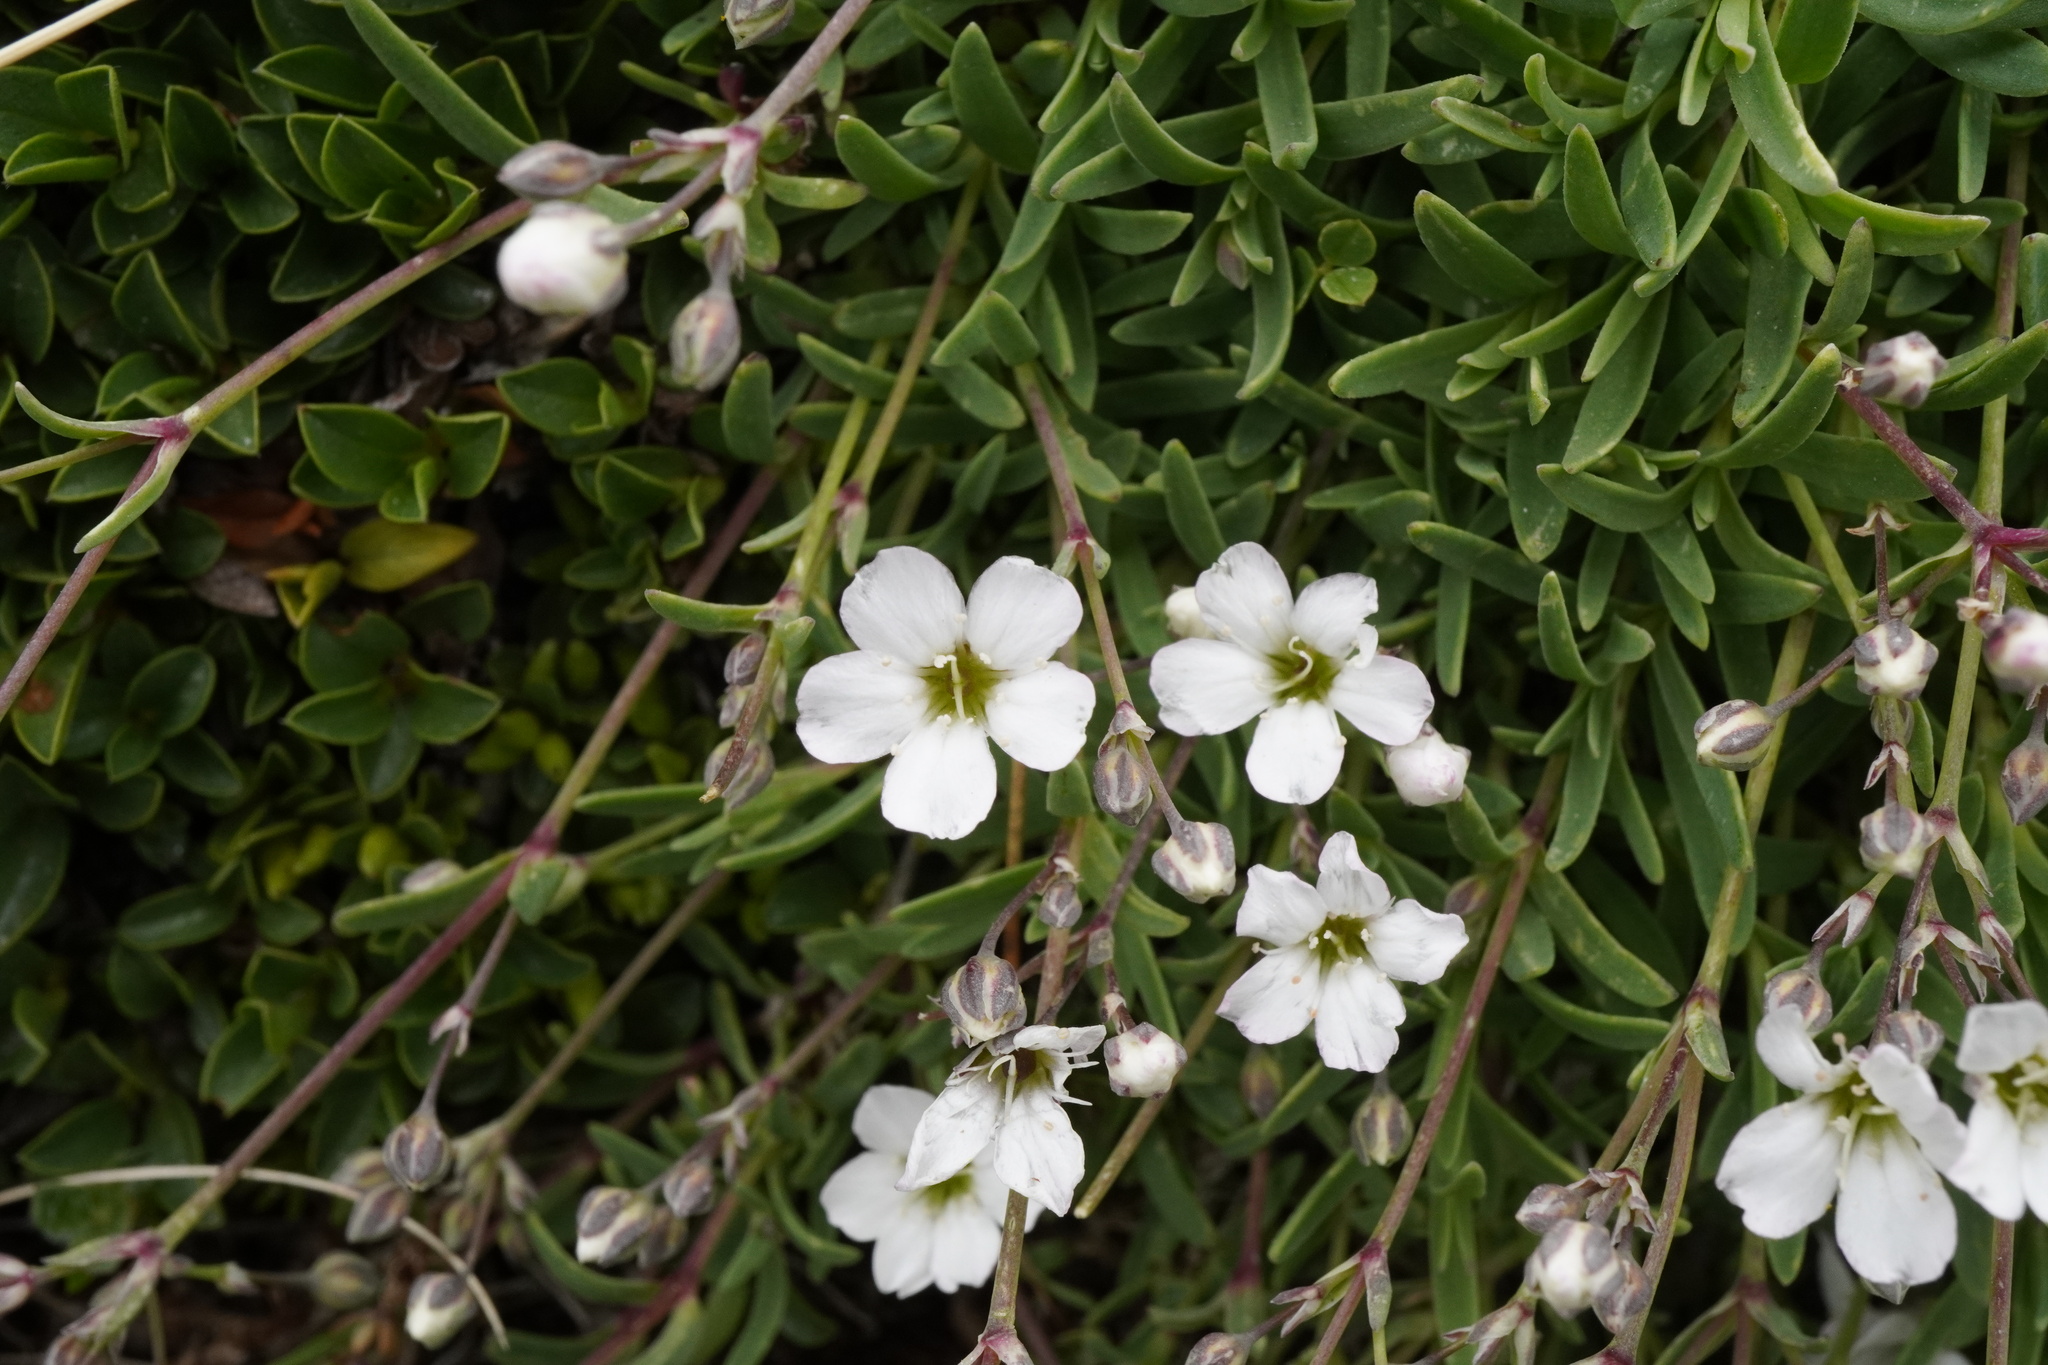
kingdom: Plantae
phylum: Tracheophyta
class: Magnoliopsida
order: Caryophyllales
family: Caryophyllaceae
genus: Gypsophila
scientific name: Gypsophila repens
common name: Creeping baby's-breath
